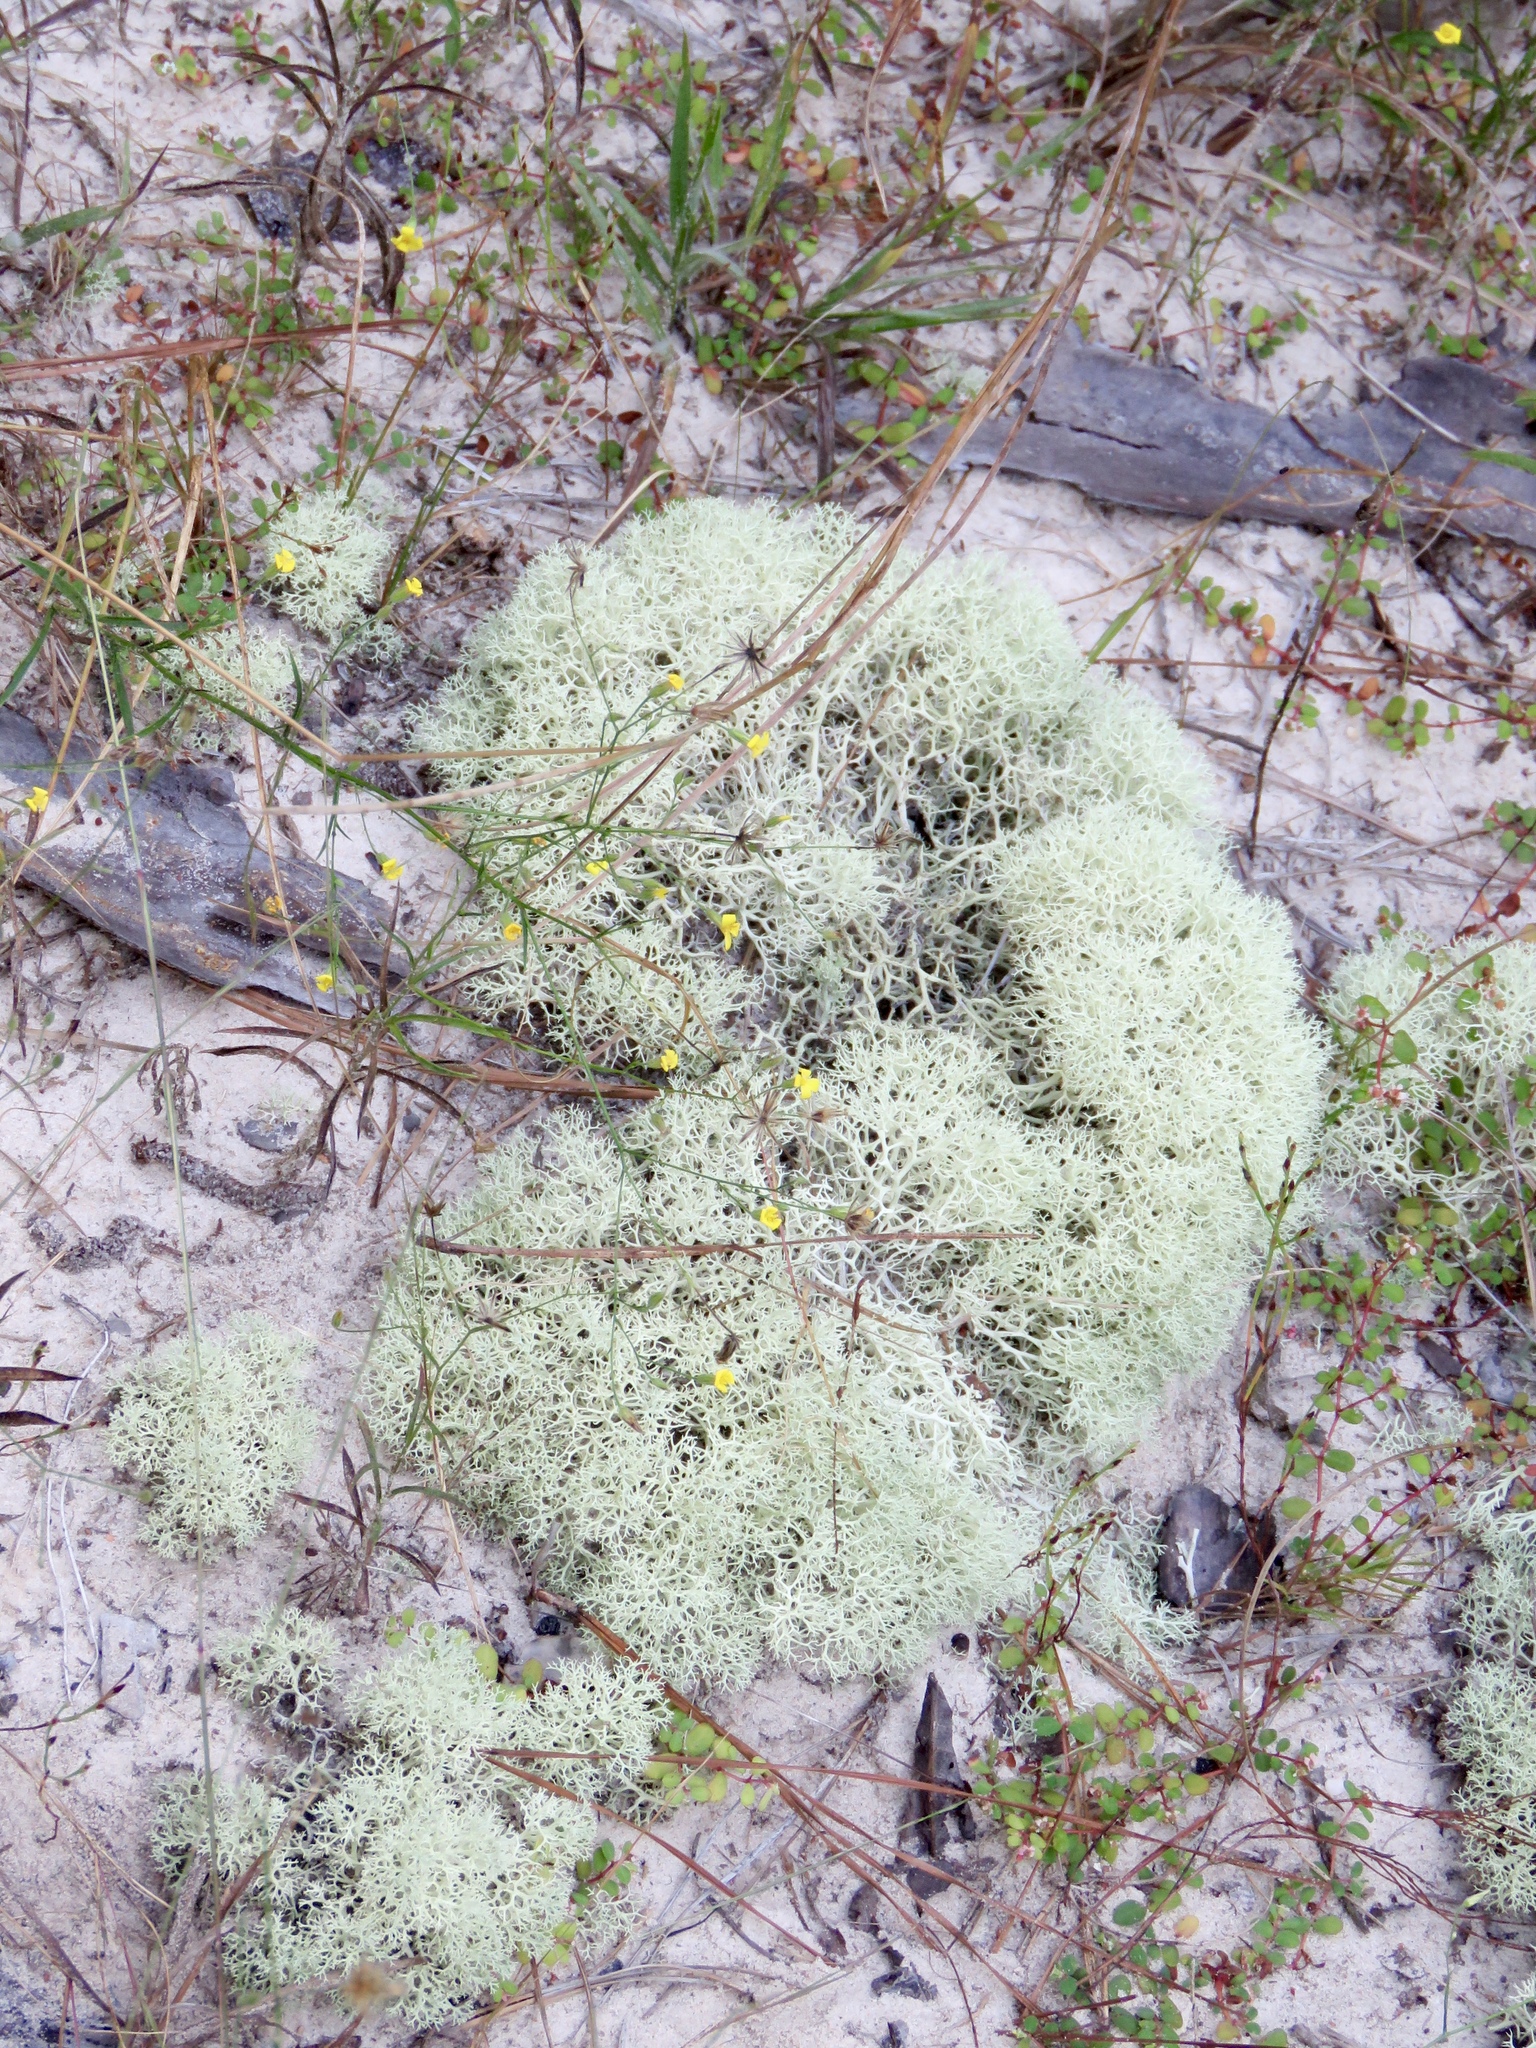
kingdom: Fungi
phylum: Ascomycota
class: Lecanoromycetes
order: Lecanorales
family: Cladoniaceae
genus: Cladonia
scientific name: Cladonia subtenuis
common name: Dixie reindeer lichen
